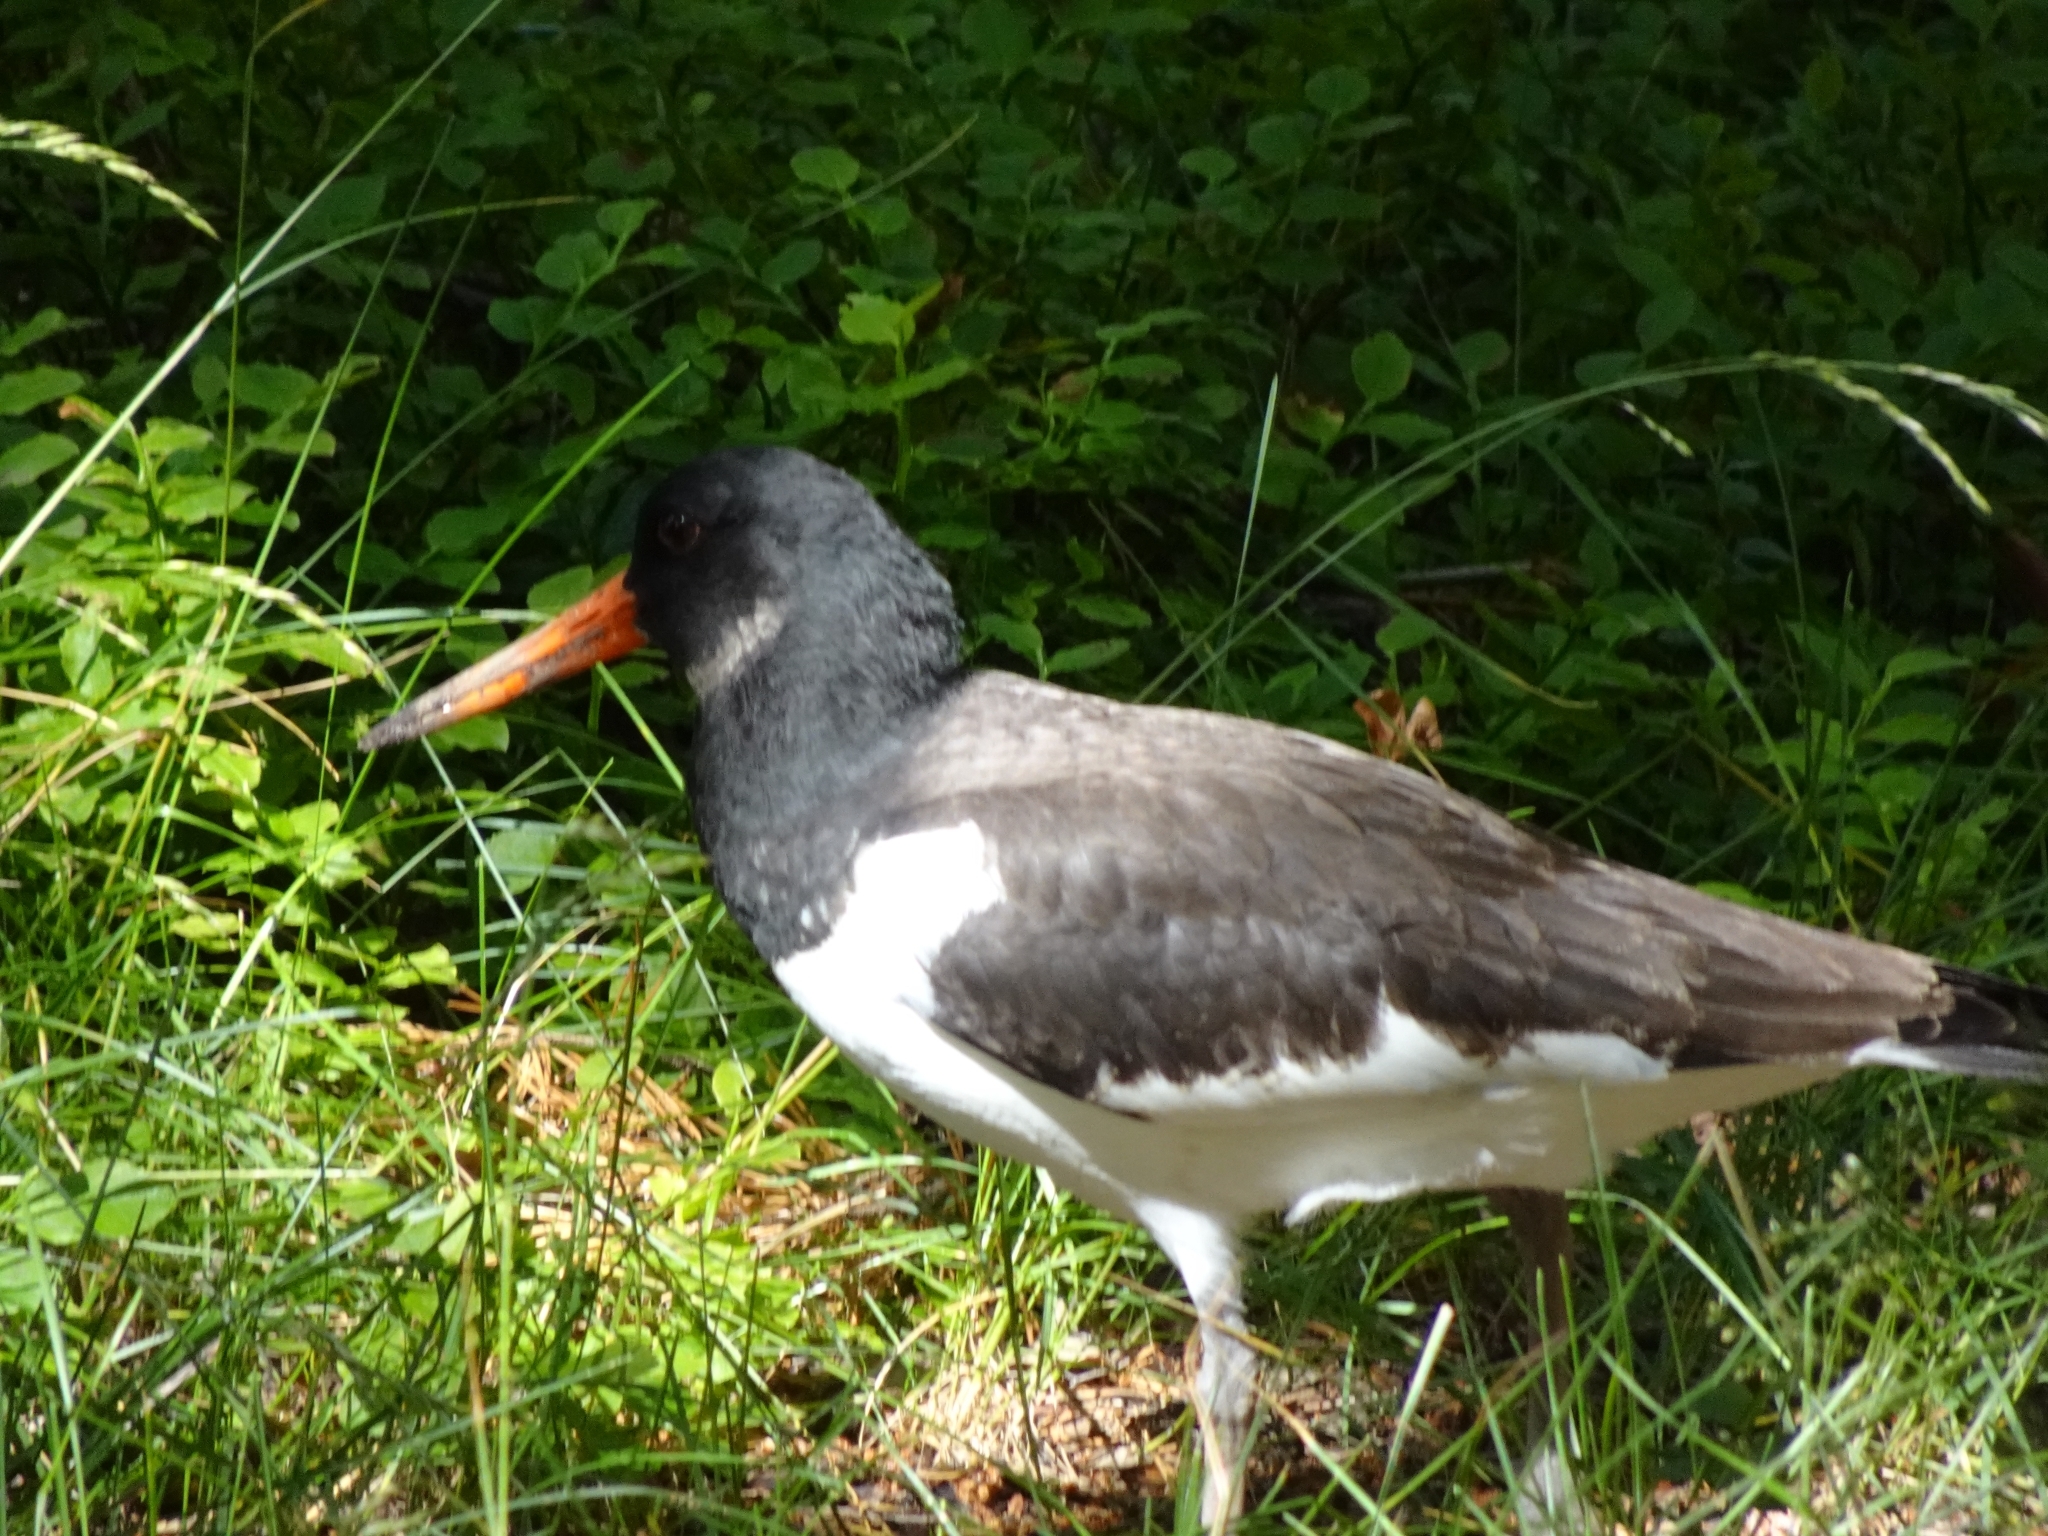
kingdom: Animalia
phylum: Chordata
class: Aves
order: Charadriiformes
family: Haematopodidae
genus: Haematopus
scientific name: Haematopus ostralegus
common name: Eurasian oystercatcher
